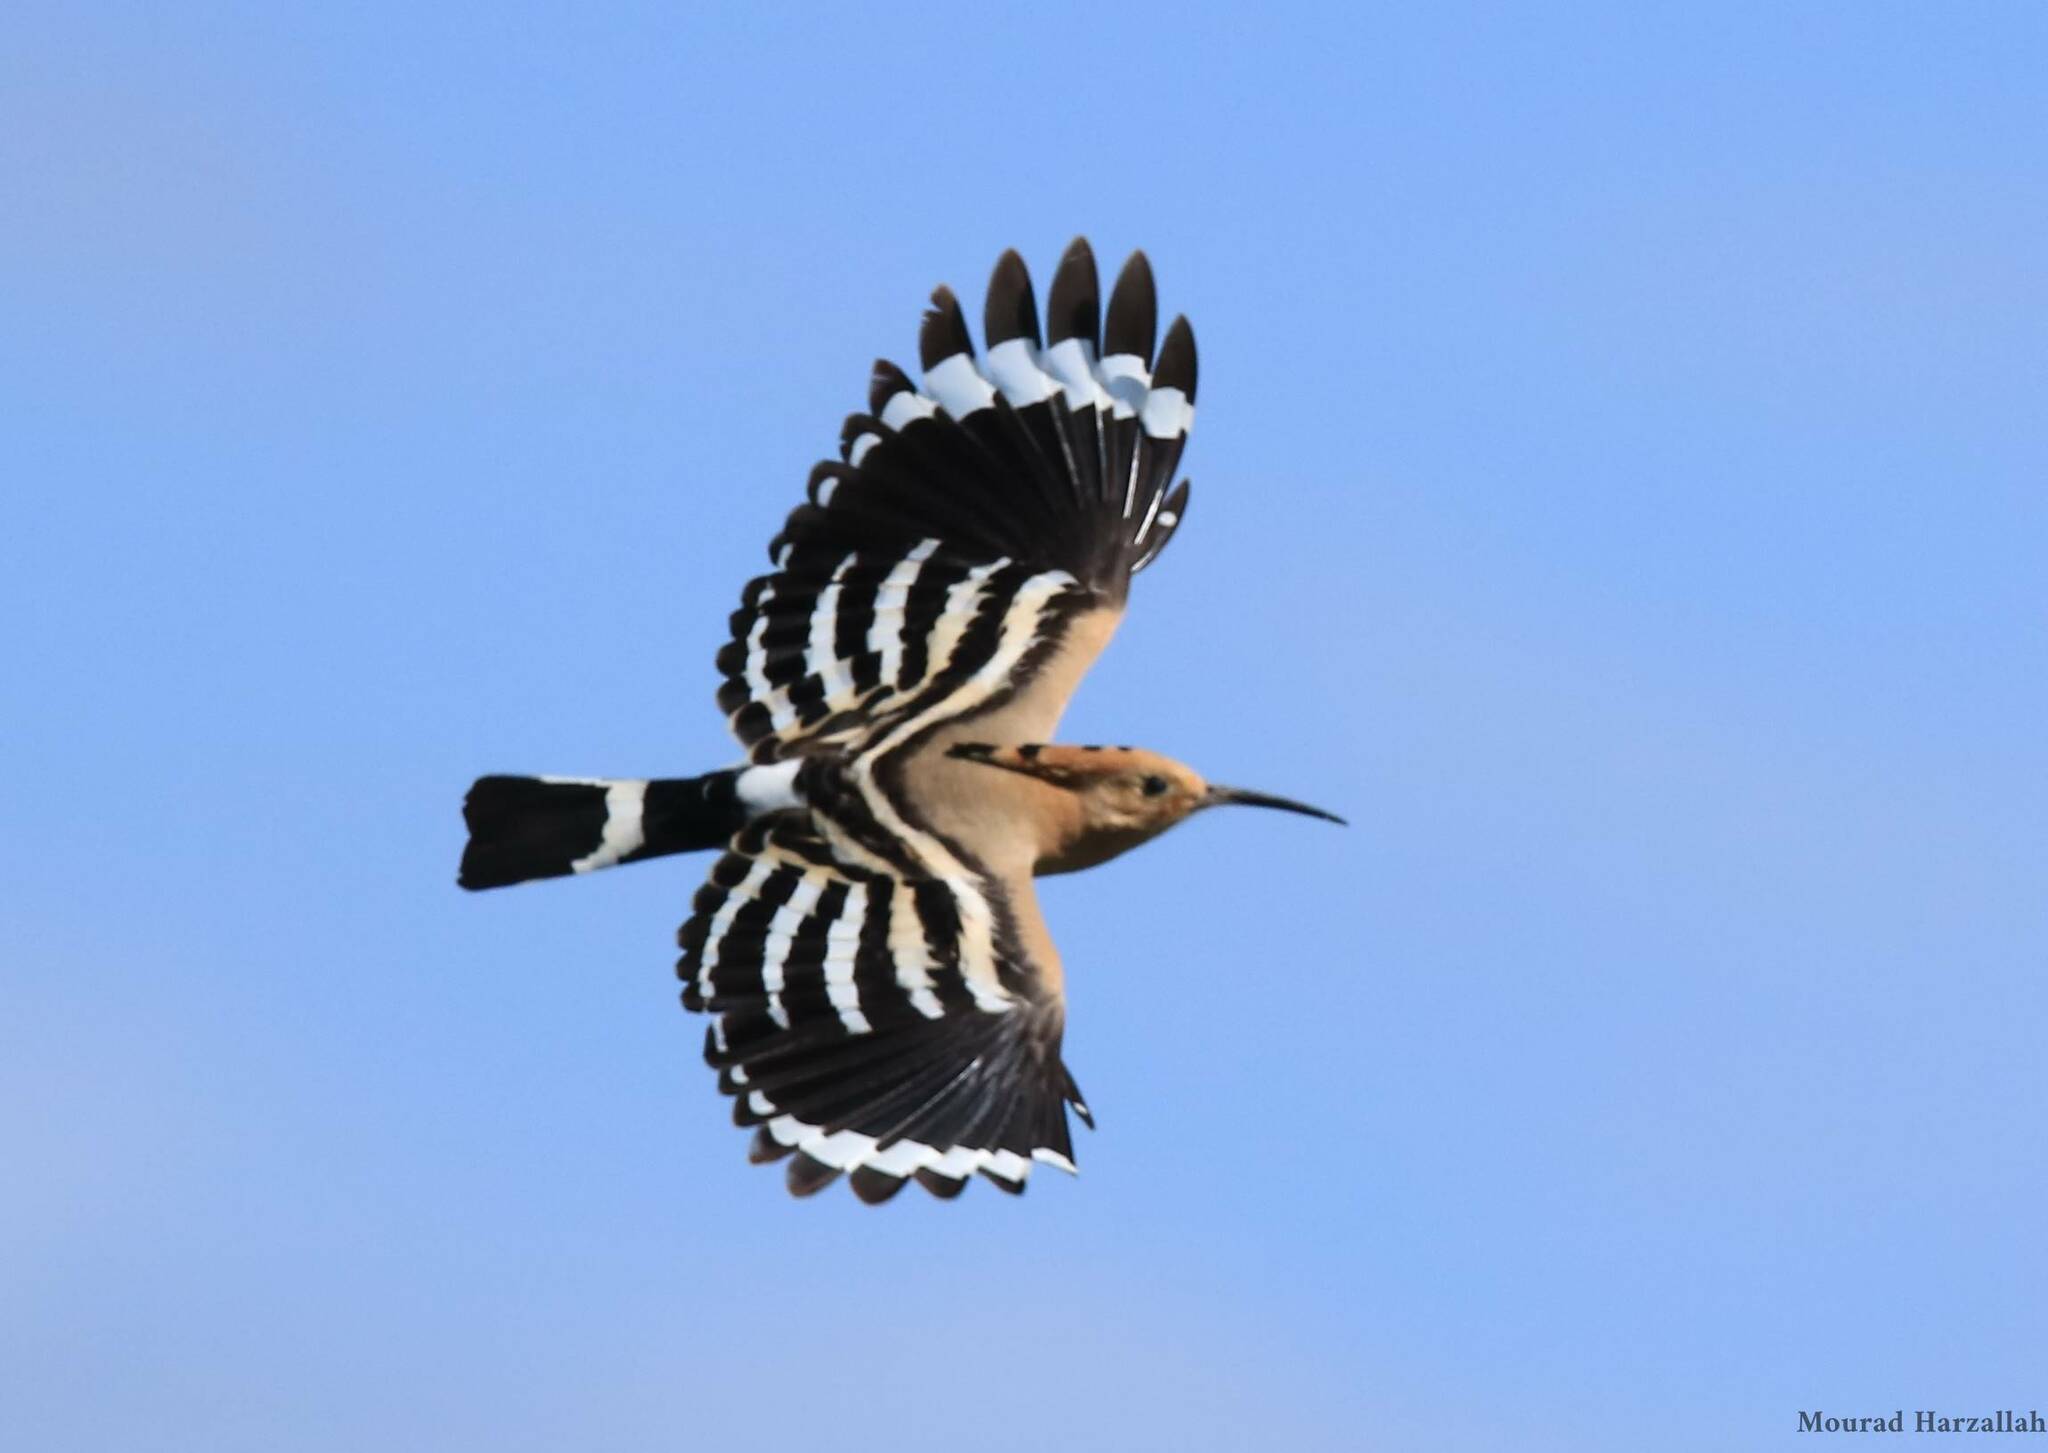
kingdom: Animalia
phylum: Chordata
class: Aves
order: Bucerotiformes
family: Upupidae
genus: Upupa
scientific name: Upupa epops
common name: Eurasian hoopoe
